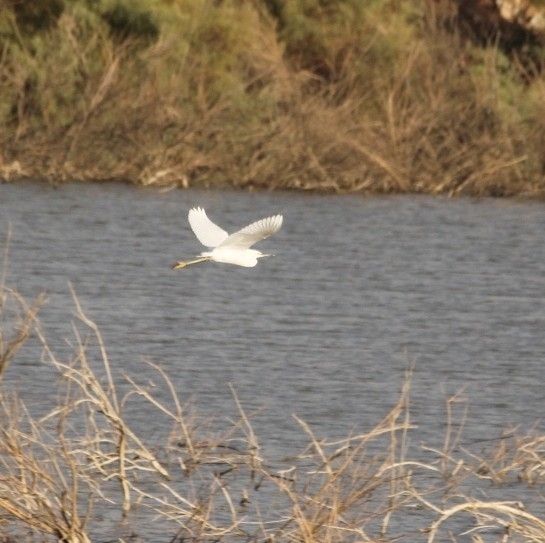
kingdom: Animalia
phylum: Chordata
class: Aves
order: Pelecaniformes
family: Ardeidae
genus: Egretta
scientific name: Egretta thula
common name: Snowy egret
